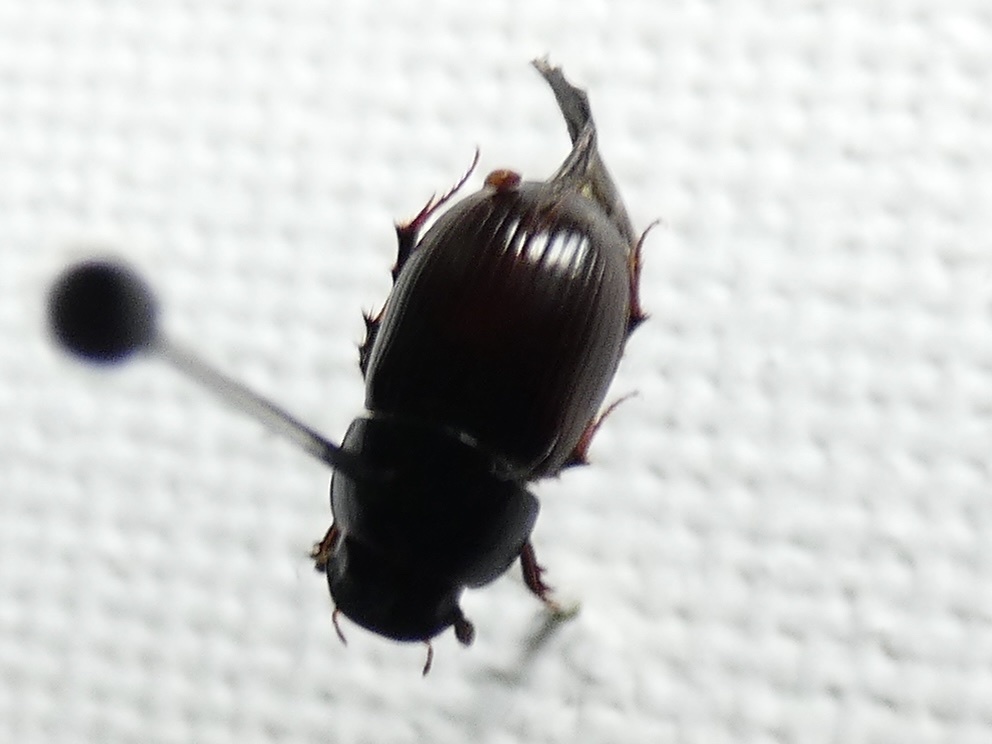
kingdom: Animalia
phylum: Arthropoda
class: Insecta
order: Coleoptera
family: Scarabaeidae
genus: Acrossus
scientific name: Acrossus rufipes
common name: Night-flying dung beetle
